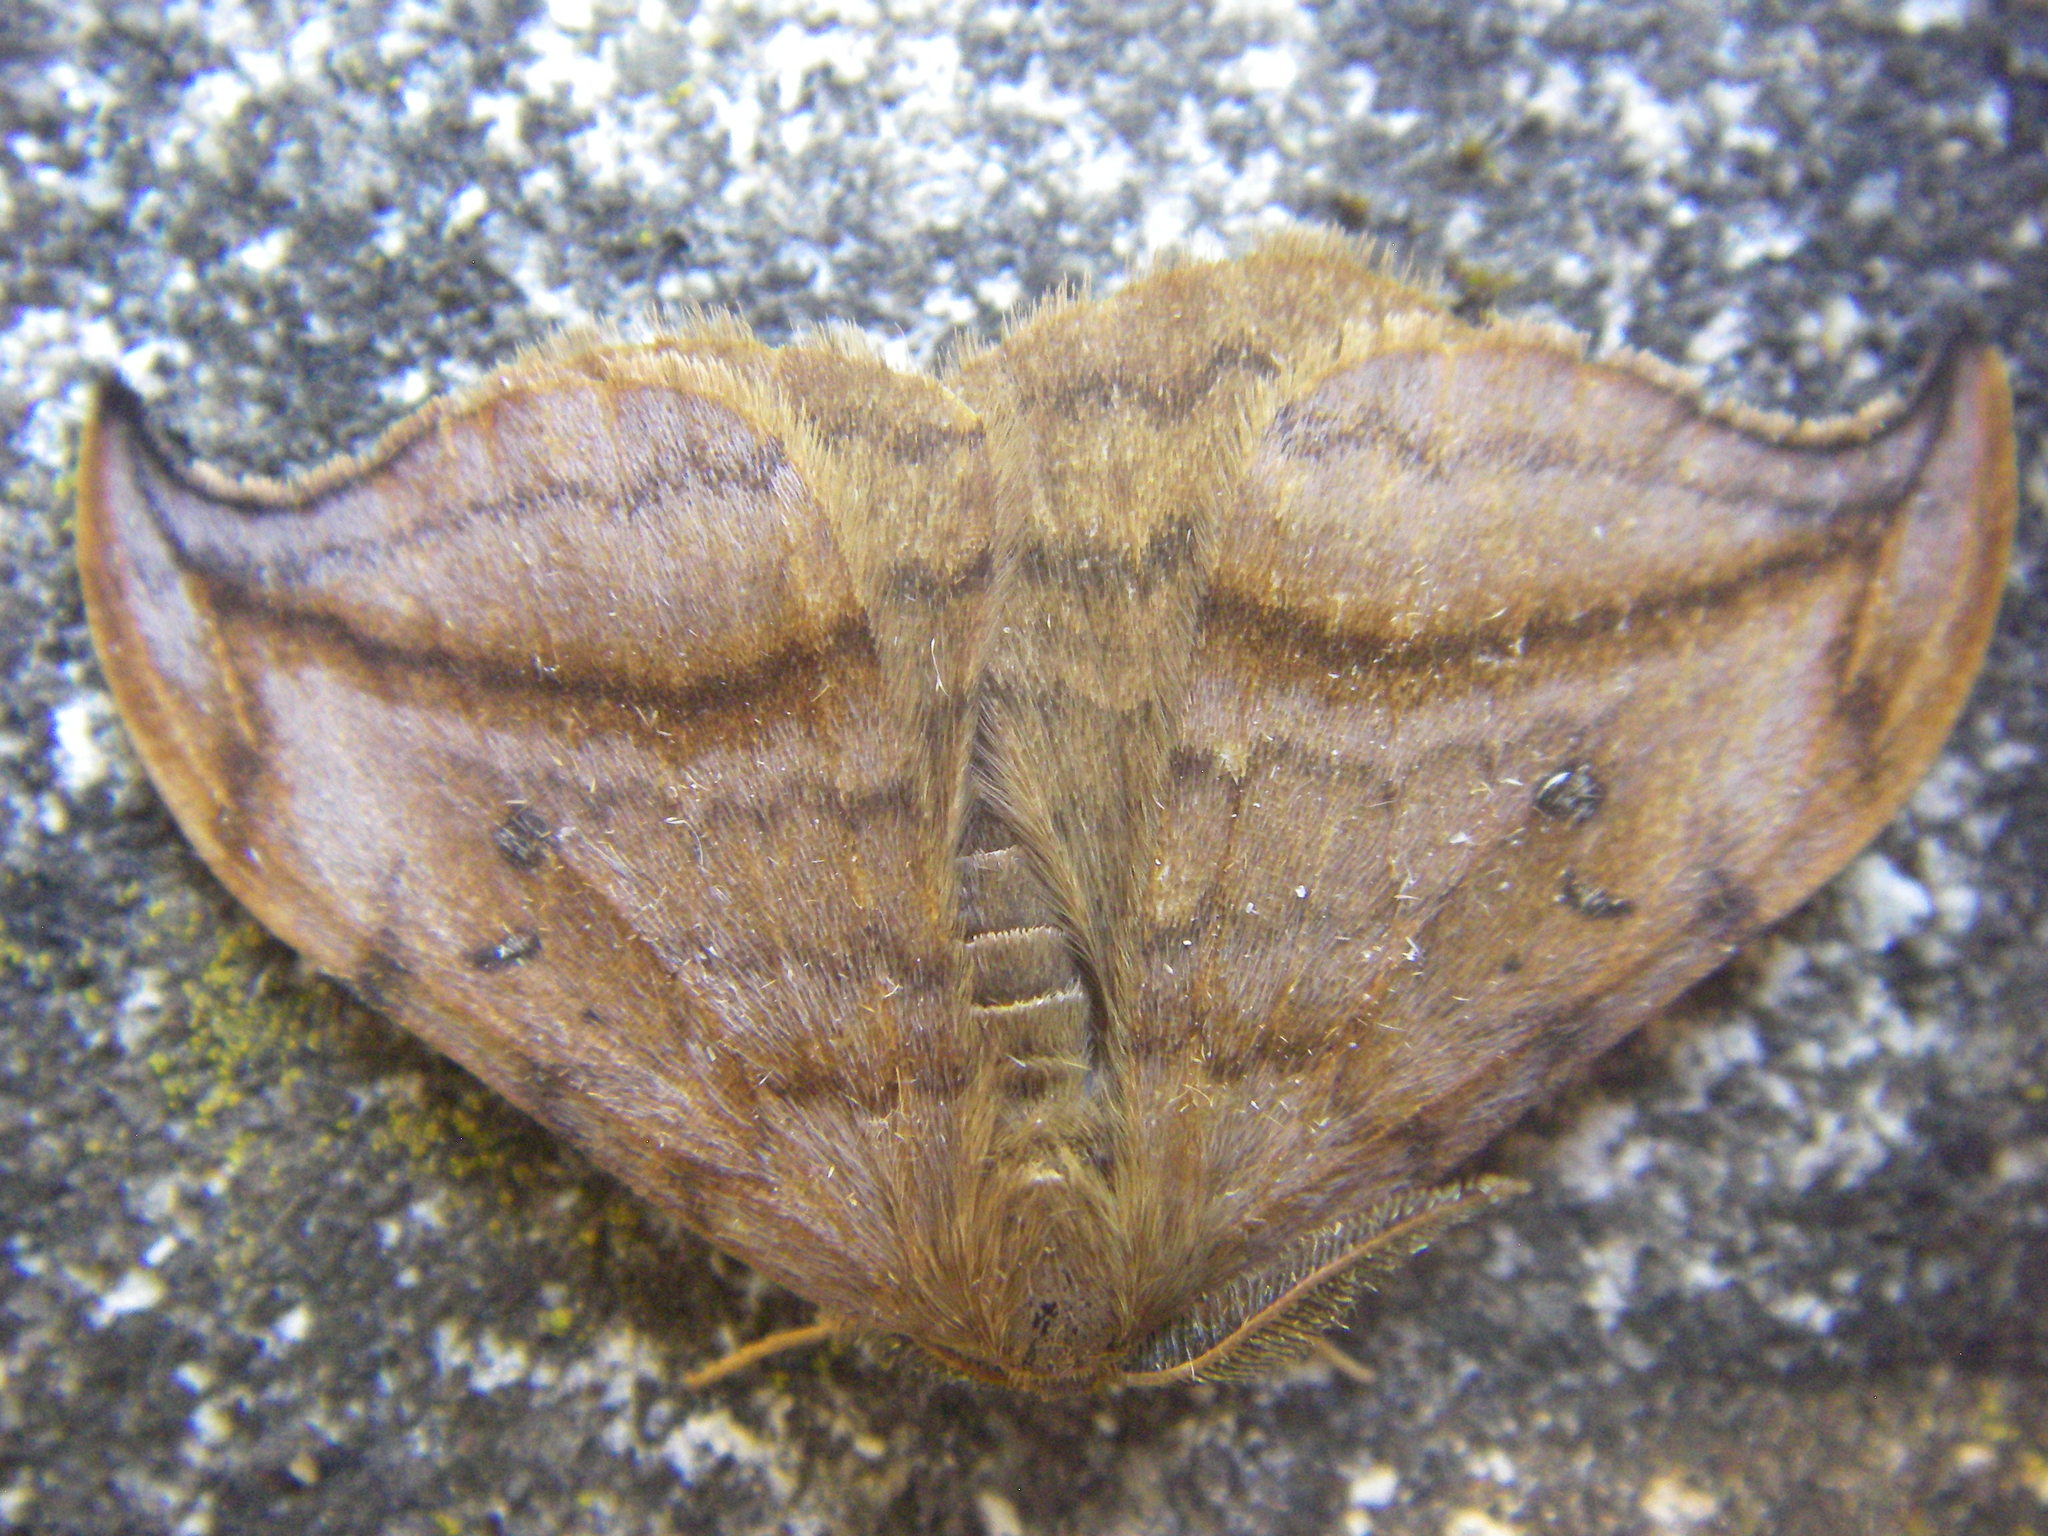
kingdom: Animalia
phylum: Arthropoda
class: Insecta
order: Lepidoptera
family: Drepanidae
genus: Drepana
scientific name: Drepana curvatula
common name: Dusky hook-tip
